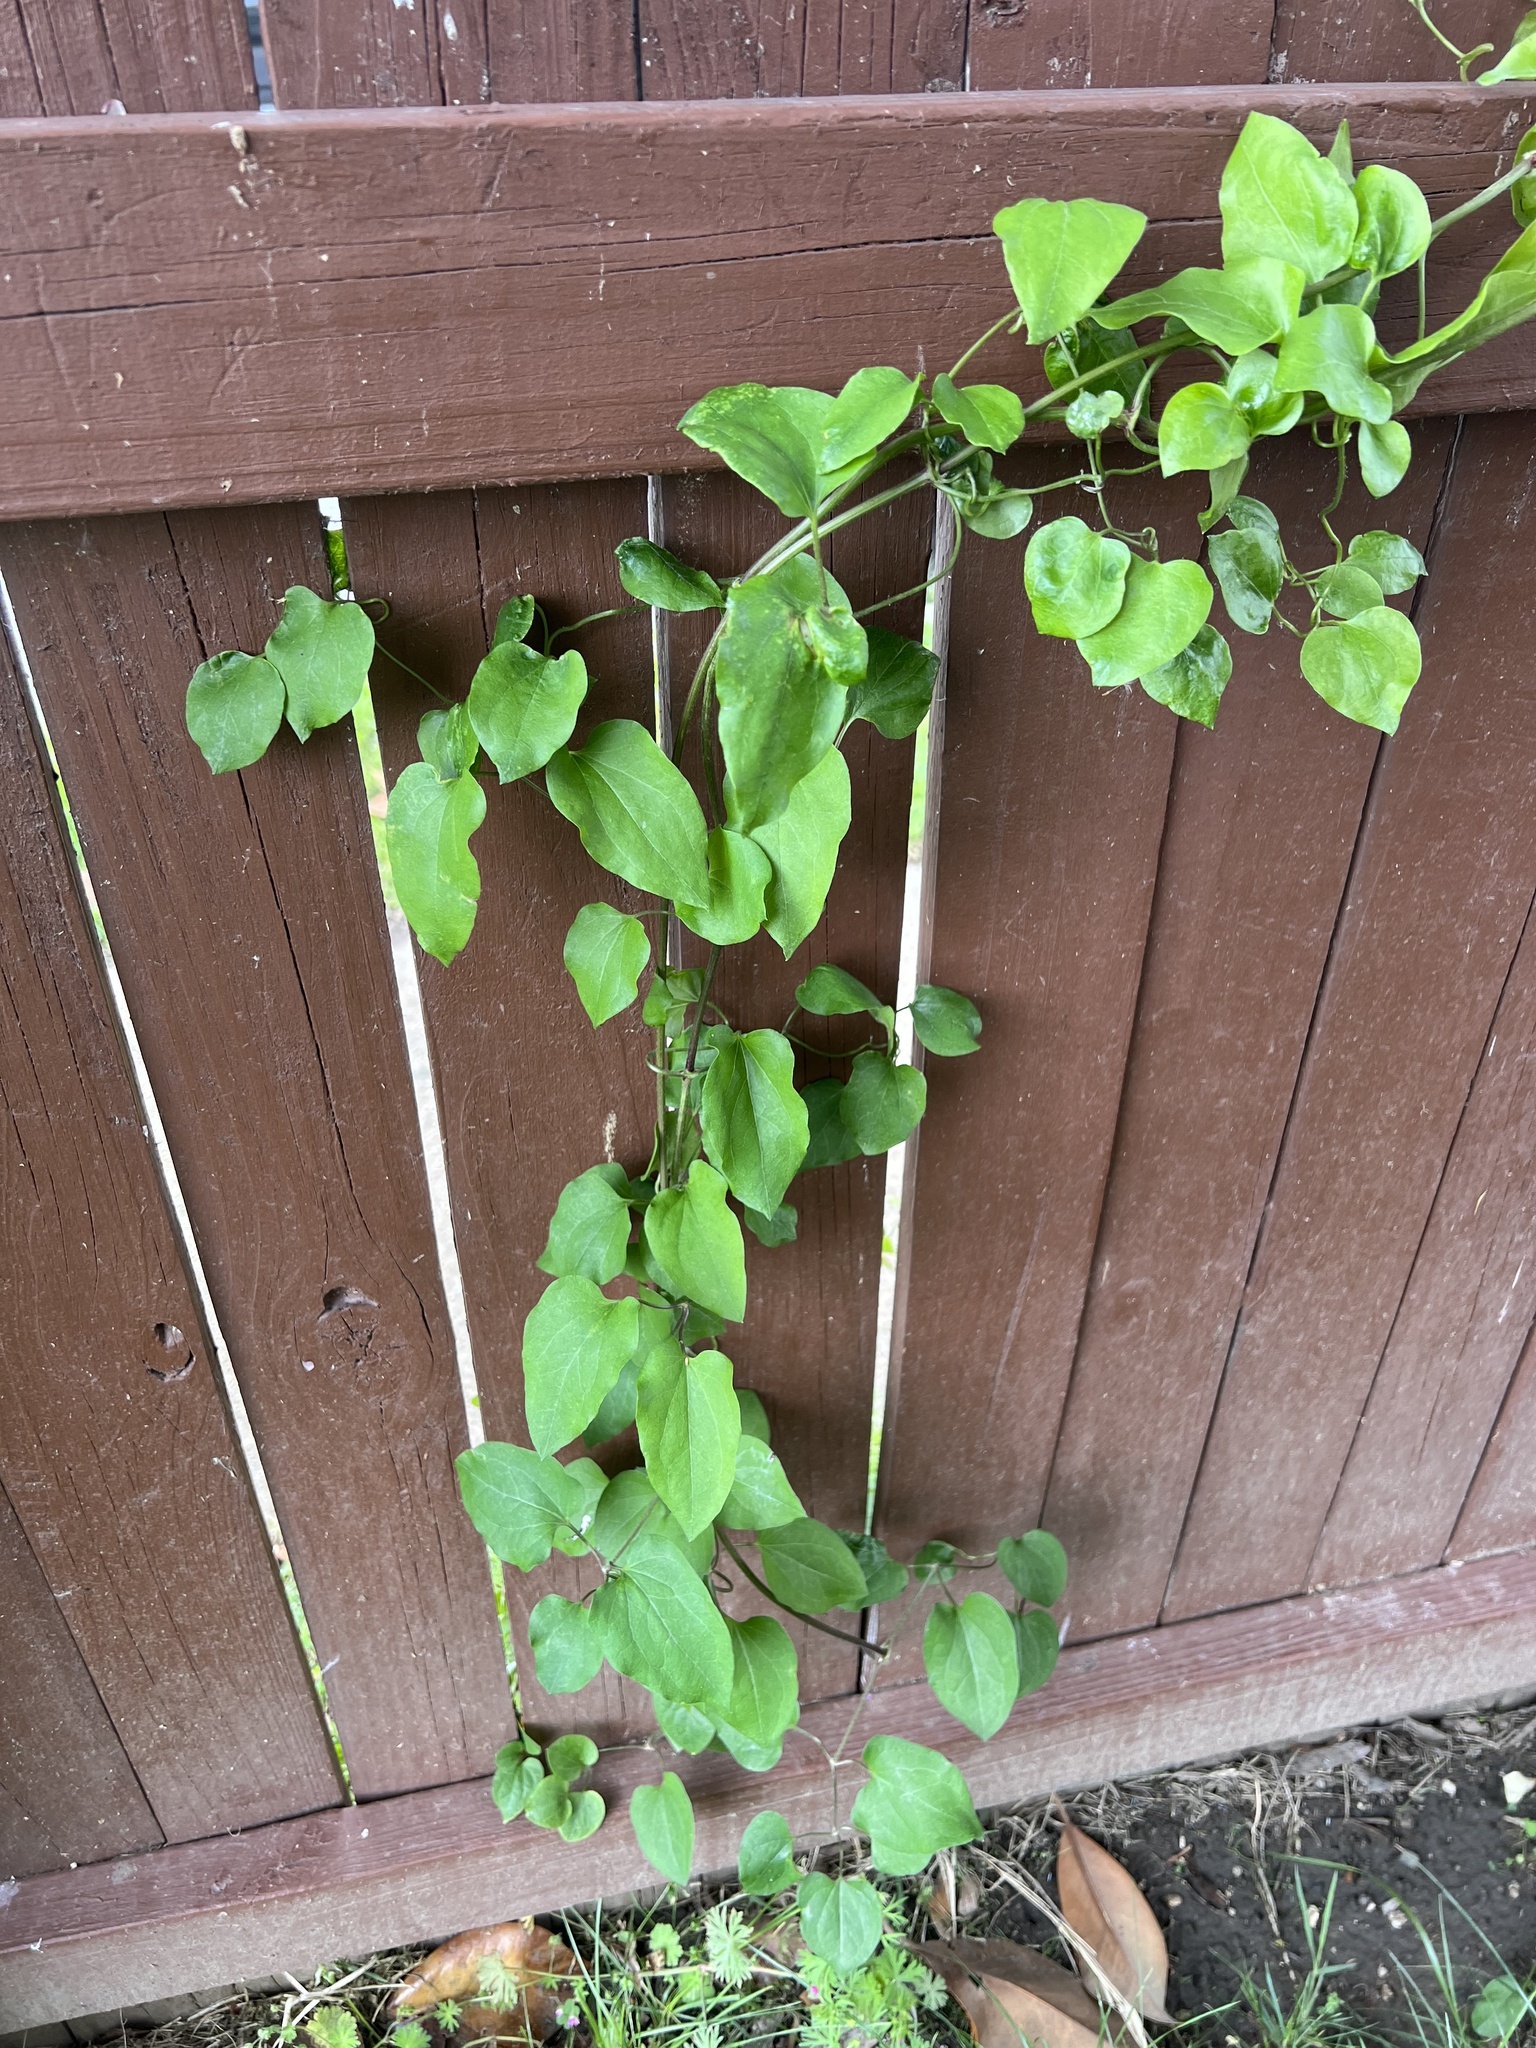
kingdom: Plantae
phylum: Tracheophyta
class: Magnoliopsida
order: Ranunculales
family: Ranunculaceae
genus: Clematis
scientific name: Clematis terniflora
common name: Sweet autumn clematis
